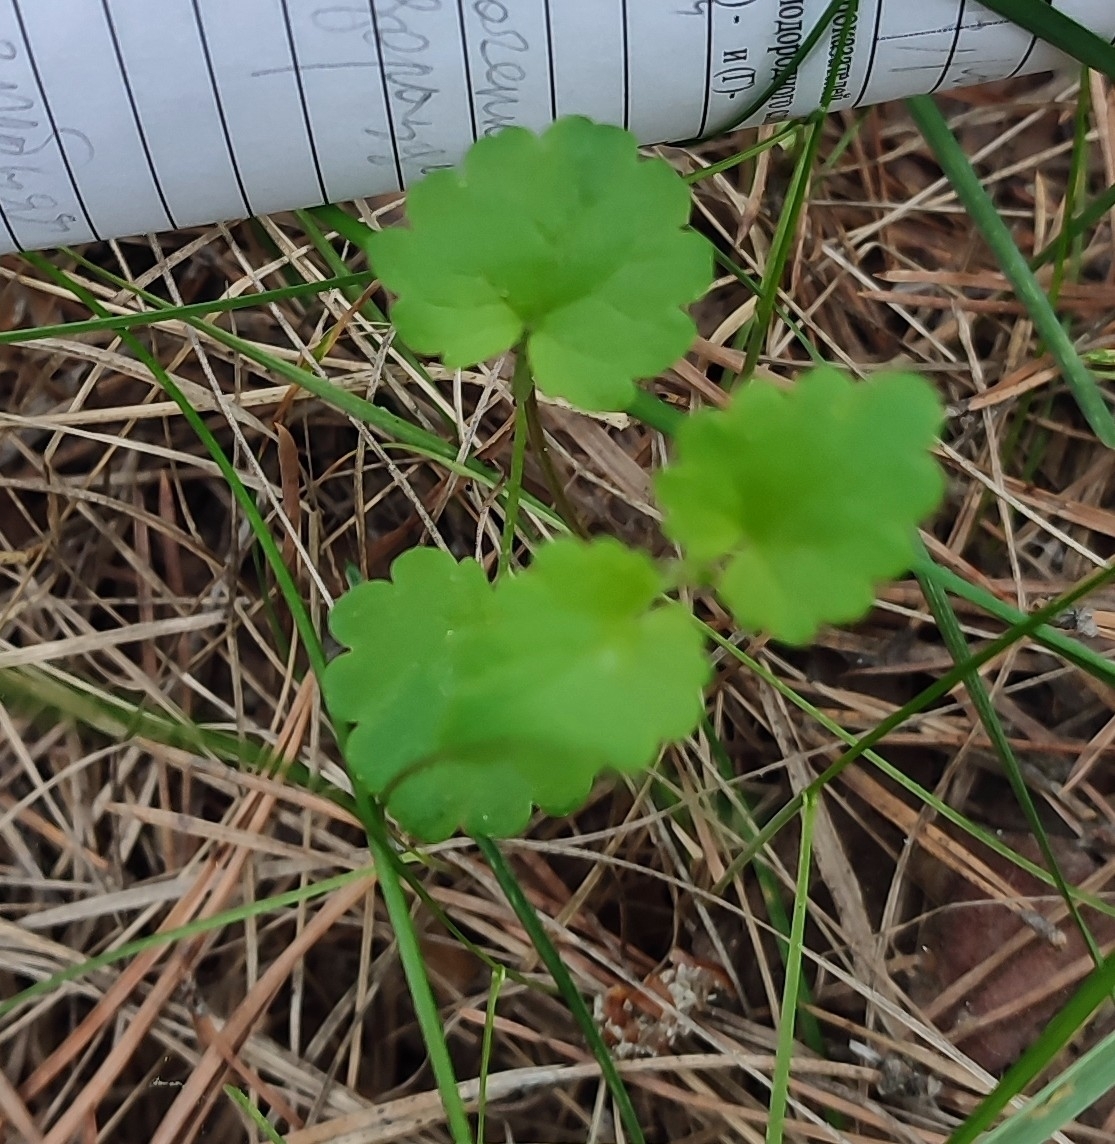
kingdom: Plantae
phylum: Tracheophyta
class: Magnoliopsida
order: Lamiales
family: Lamiaceae
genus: Glechoma
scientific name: Glechoma hederacea
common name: Ground ivy
